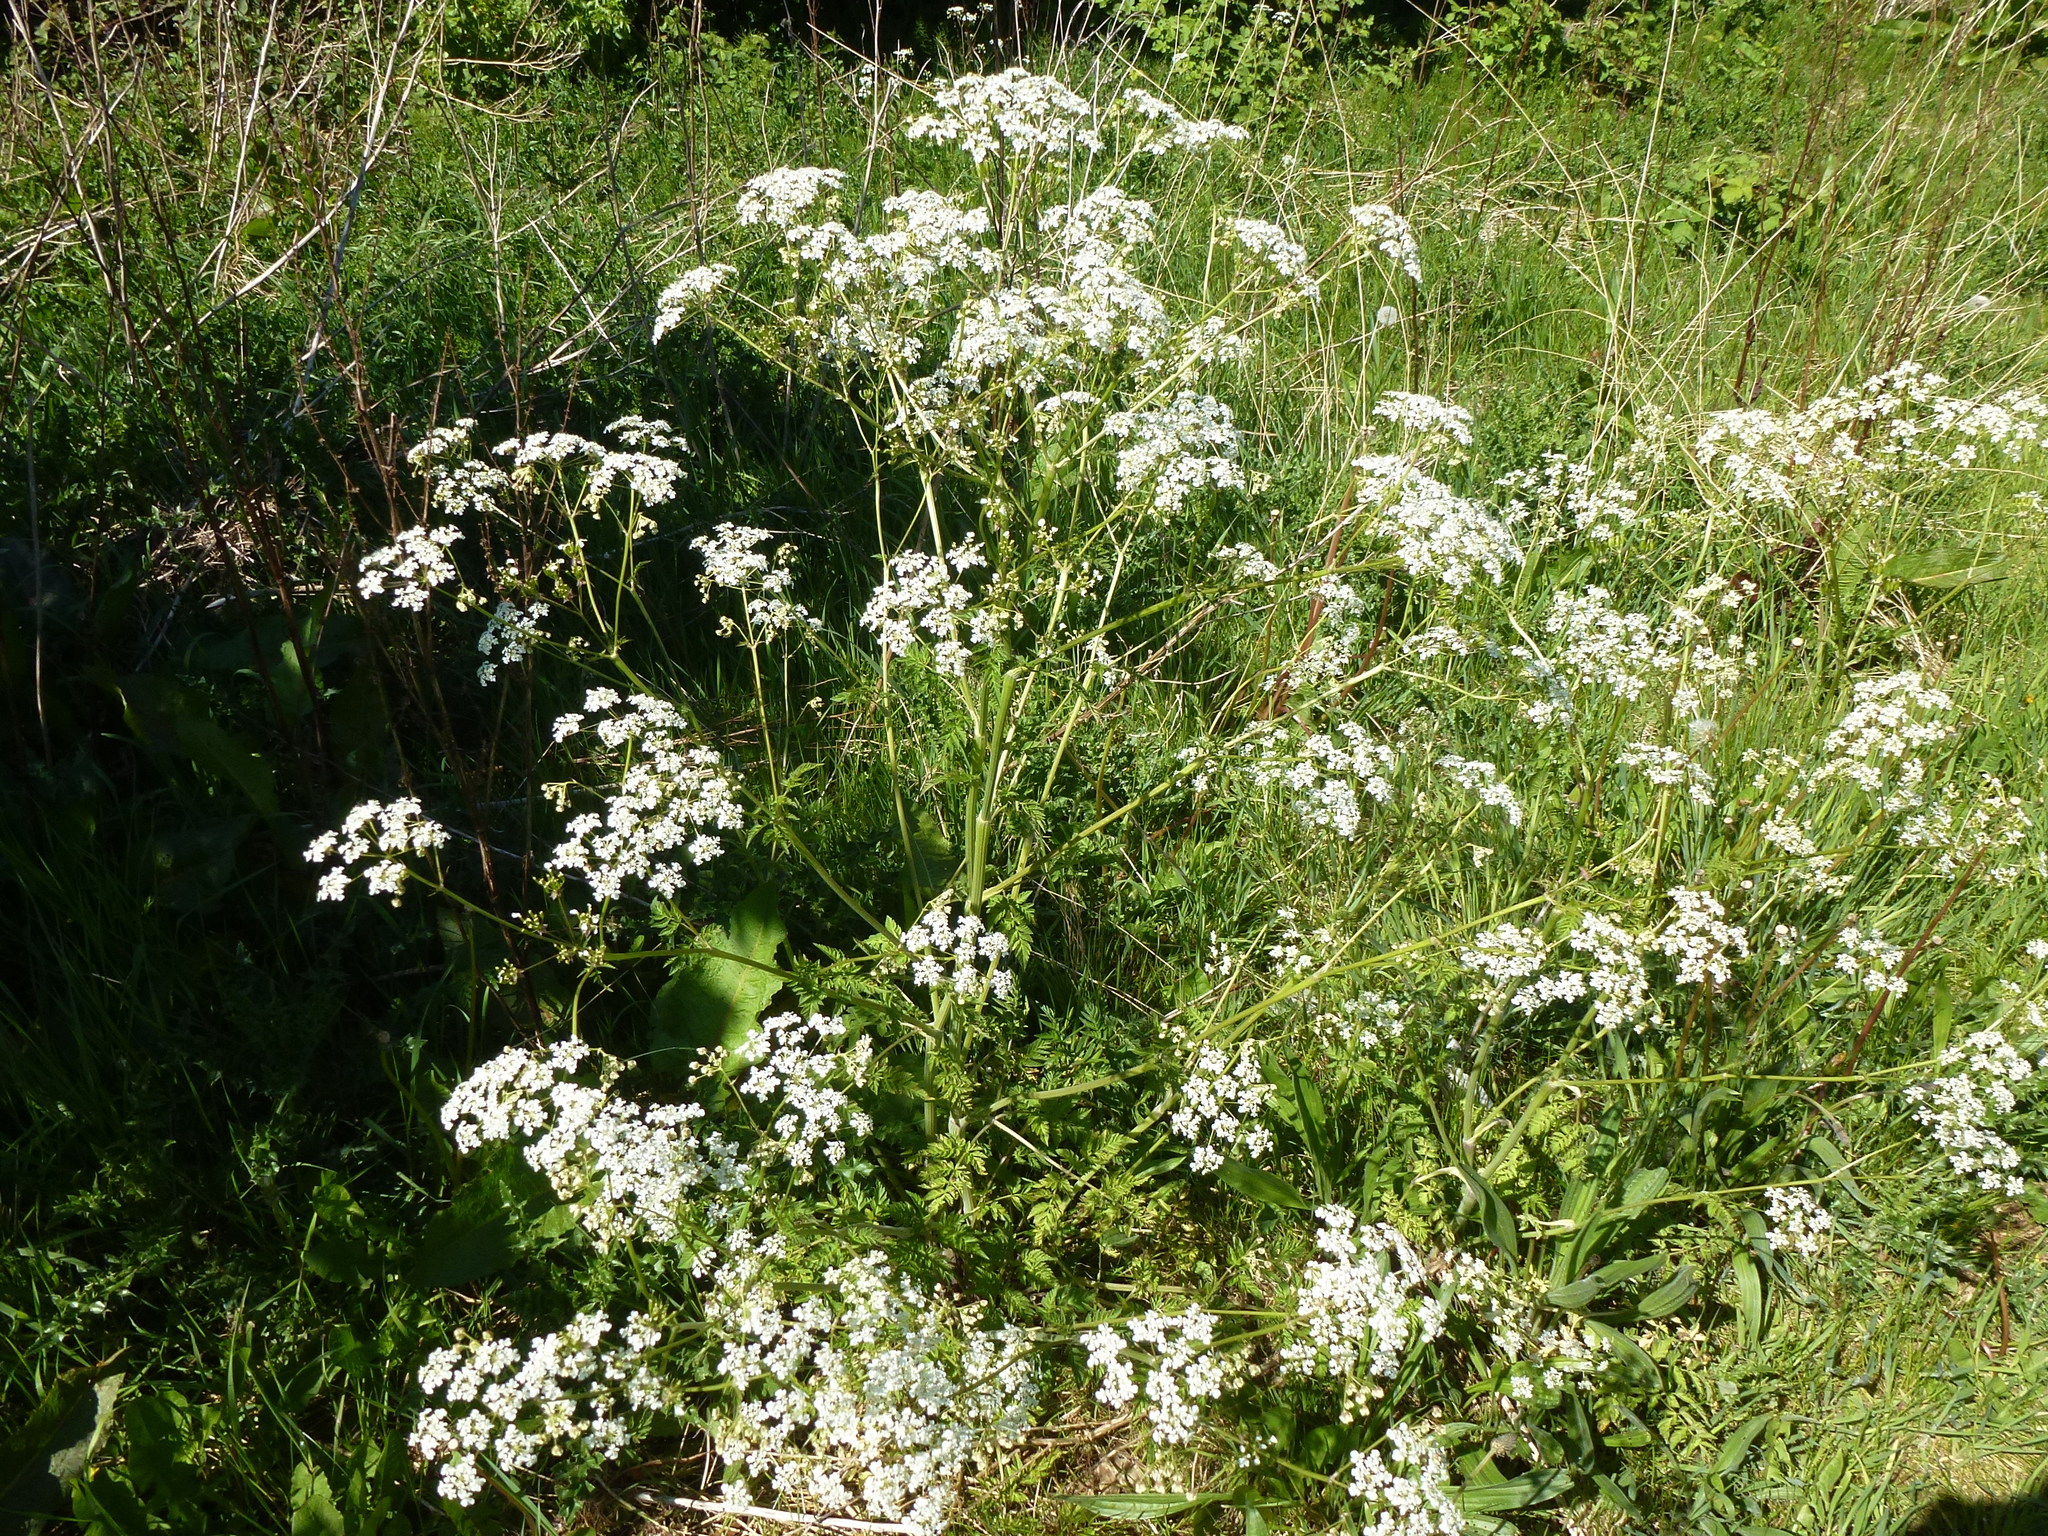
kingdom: Plantae
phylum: Tracheophyta
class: Magnoliopsida
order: Apiales
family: Apiaceae
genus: Anthriscus
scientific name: Anthriscus sylvestris
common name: Cow parsley
